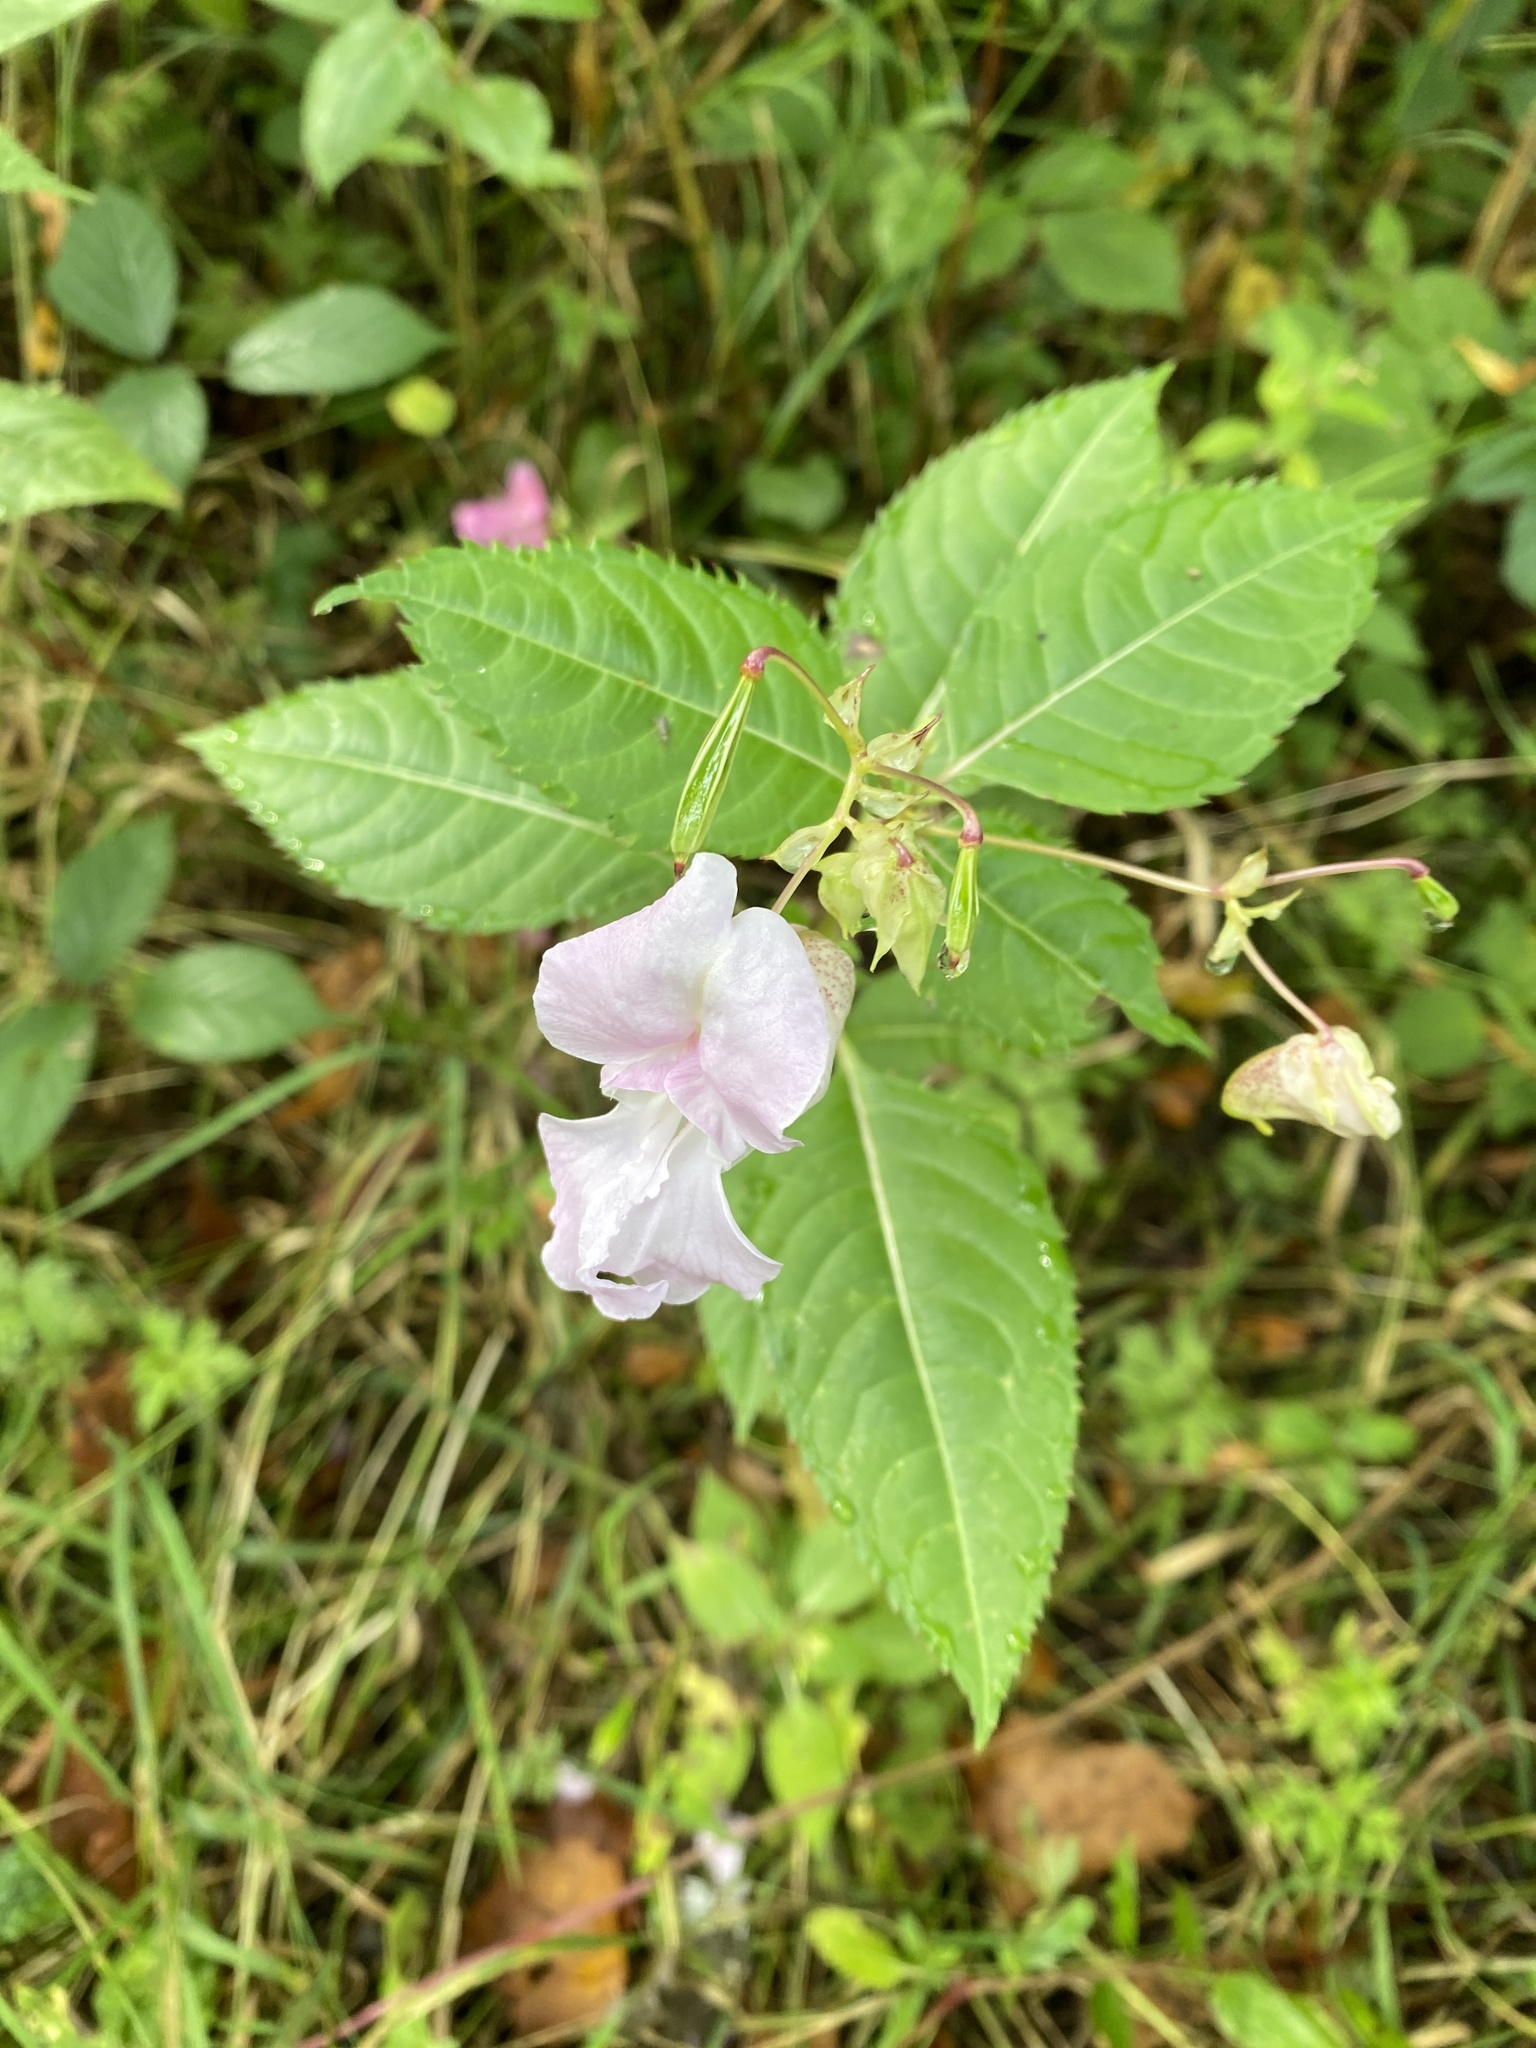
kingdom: Plantae
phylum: Tracheophyta
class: Magnoliopsida
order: Ericales
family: Balsaminaceae
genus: Impatiens
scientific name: Impatiens glandulifera
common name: Himalayan balsam
